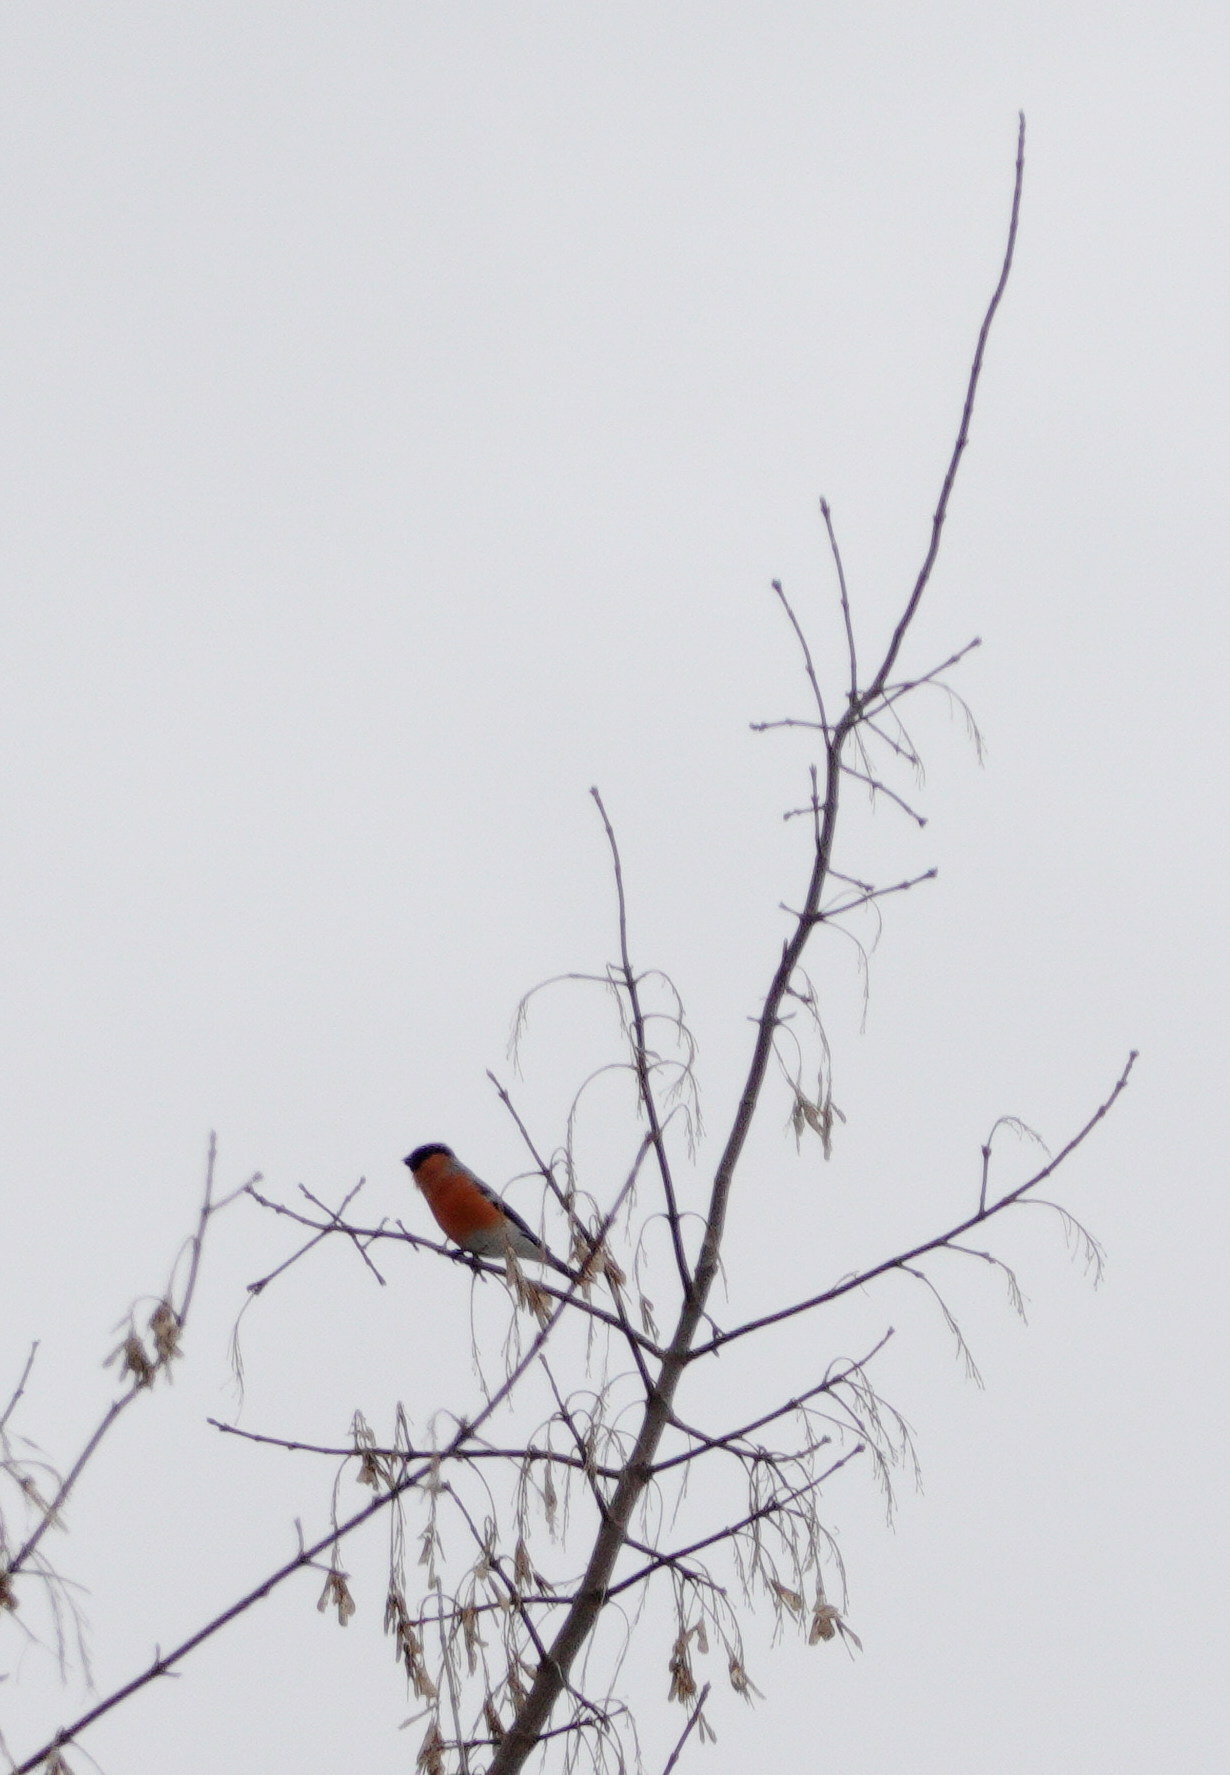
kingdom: Animalia
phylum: Chordata
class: Aves
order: Passeriformes
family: Fringillidae
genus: Pyrrhula
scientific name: Pyrrhula pyrrhula
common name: Eurasian bullfinch
